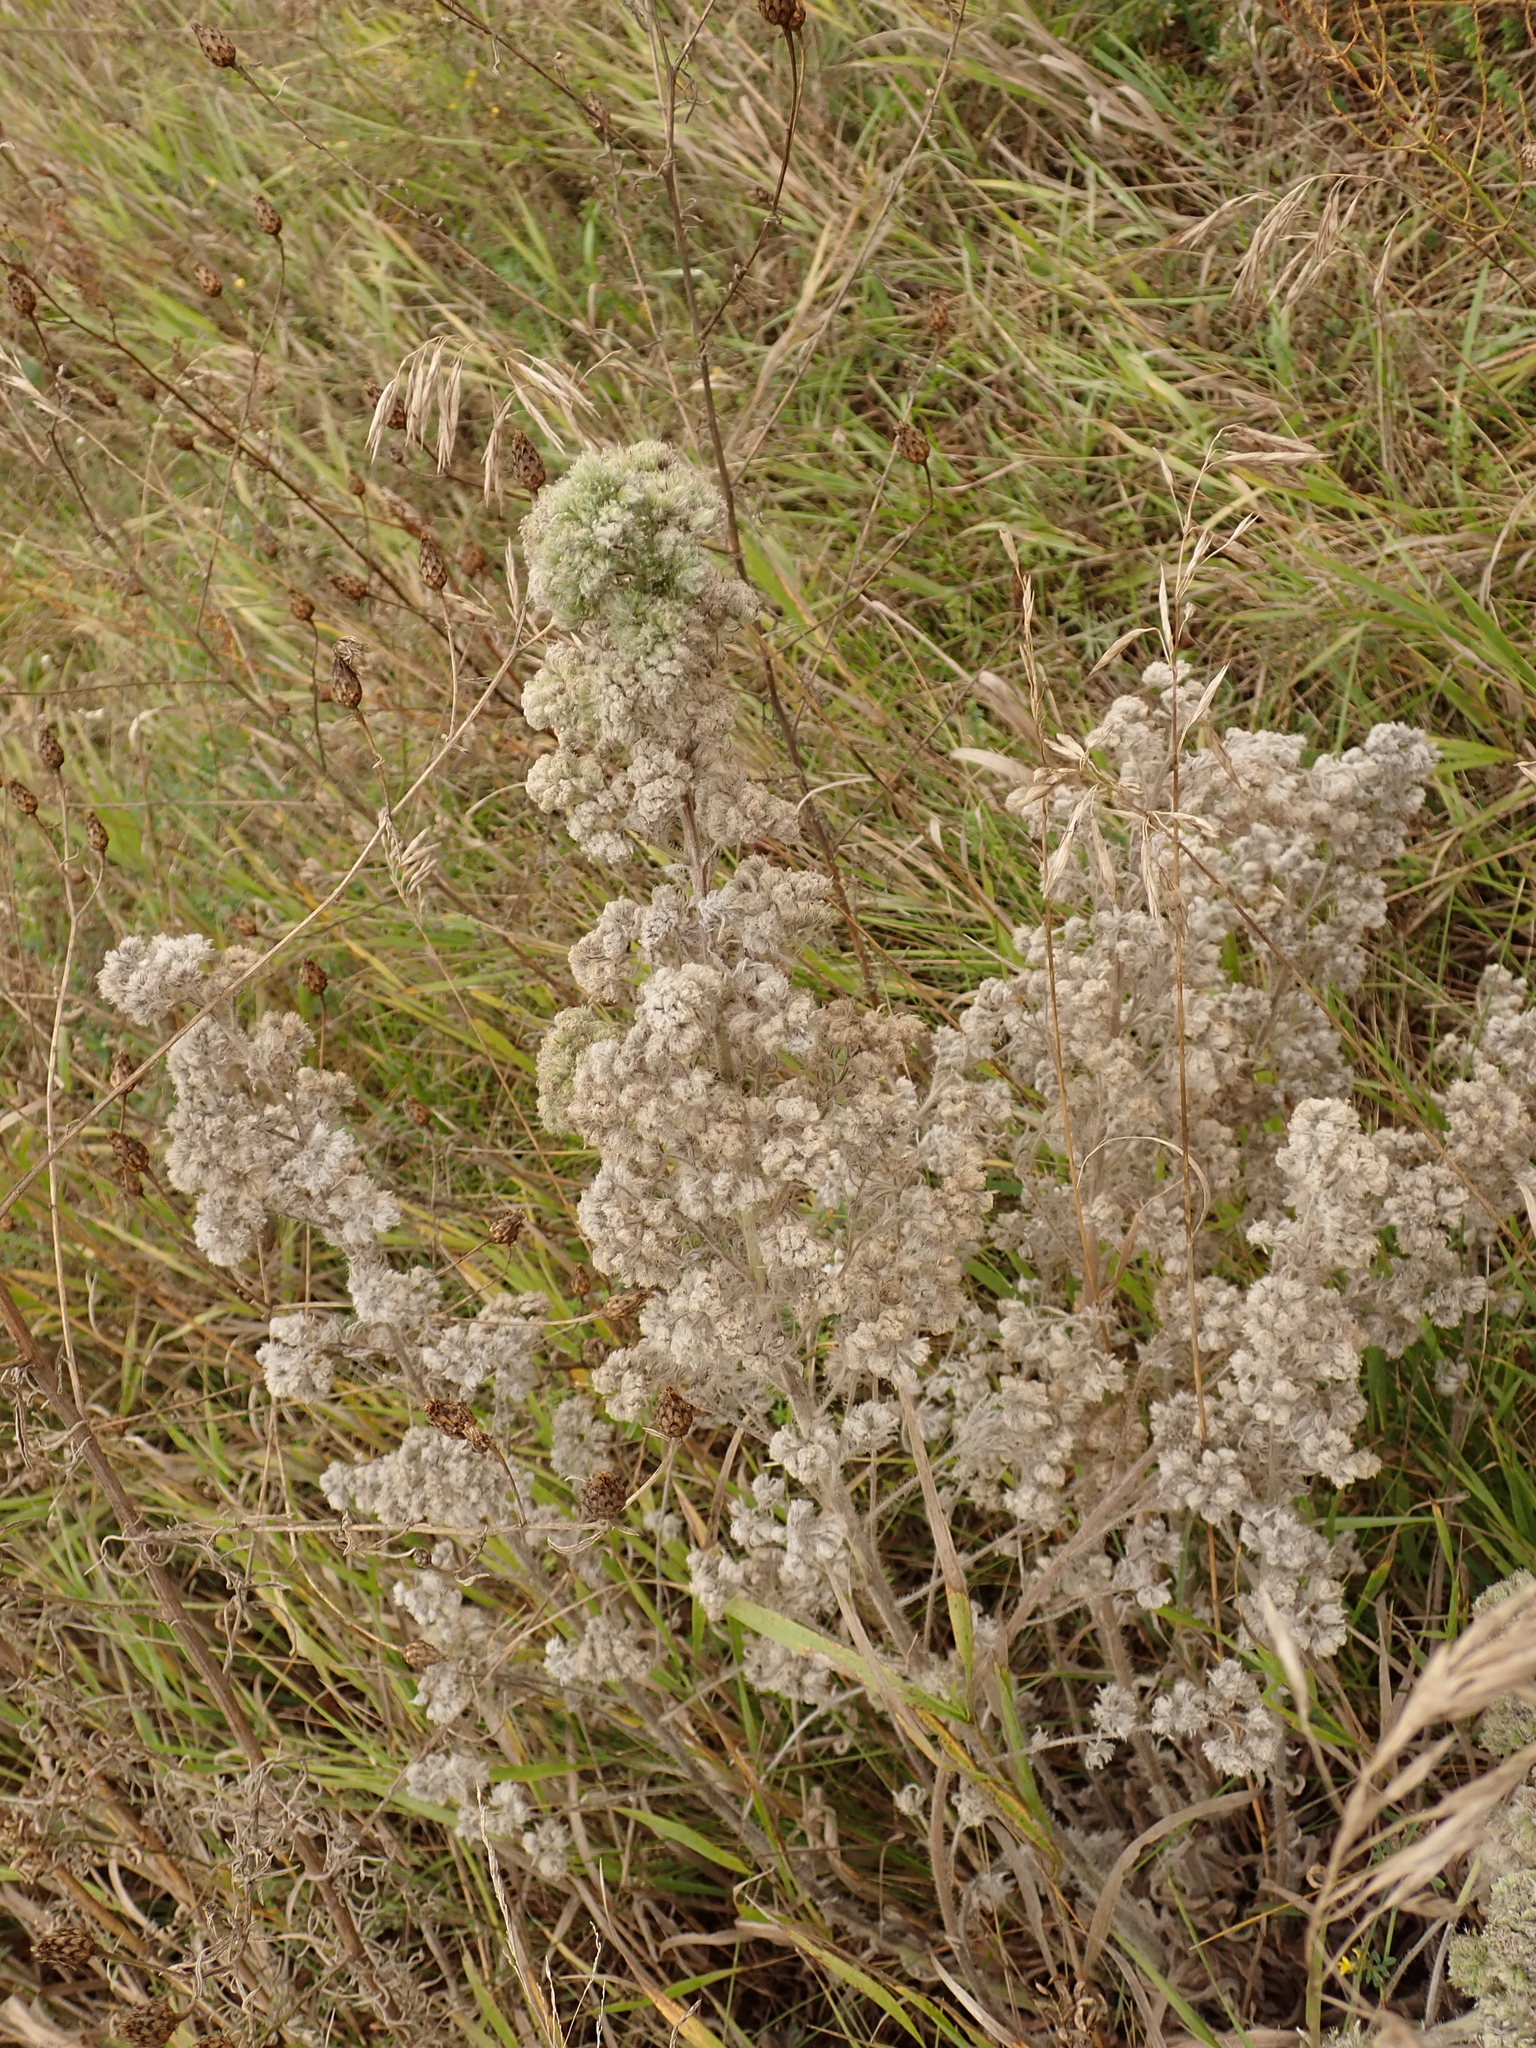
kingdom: Plantae
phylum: Tracheophyta
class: Magnoliopsida
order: Boraginales
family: Boraginaceae
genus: Echium
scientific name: Echium vulgare
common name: Common viper's bugloss
